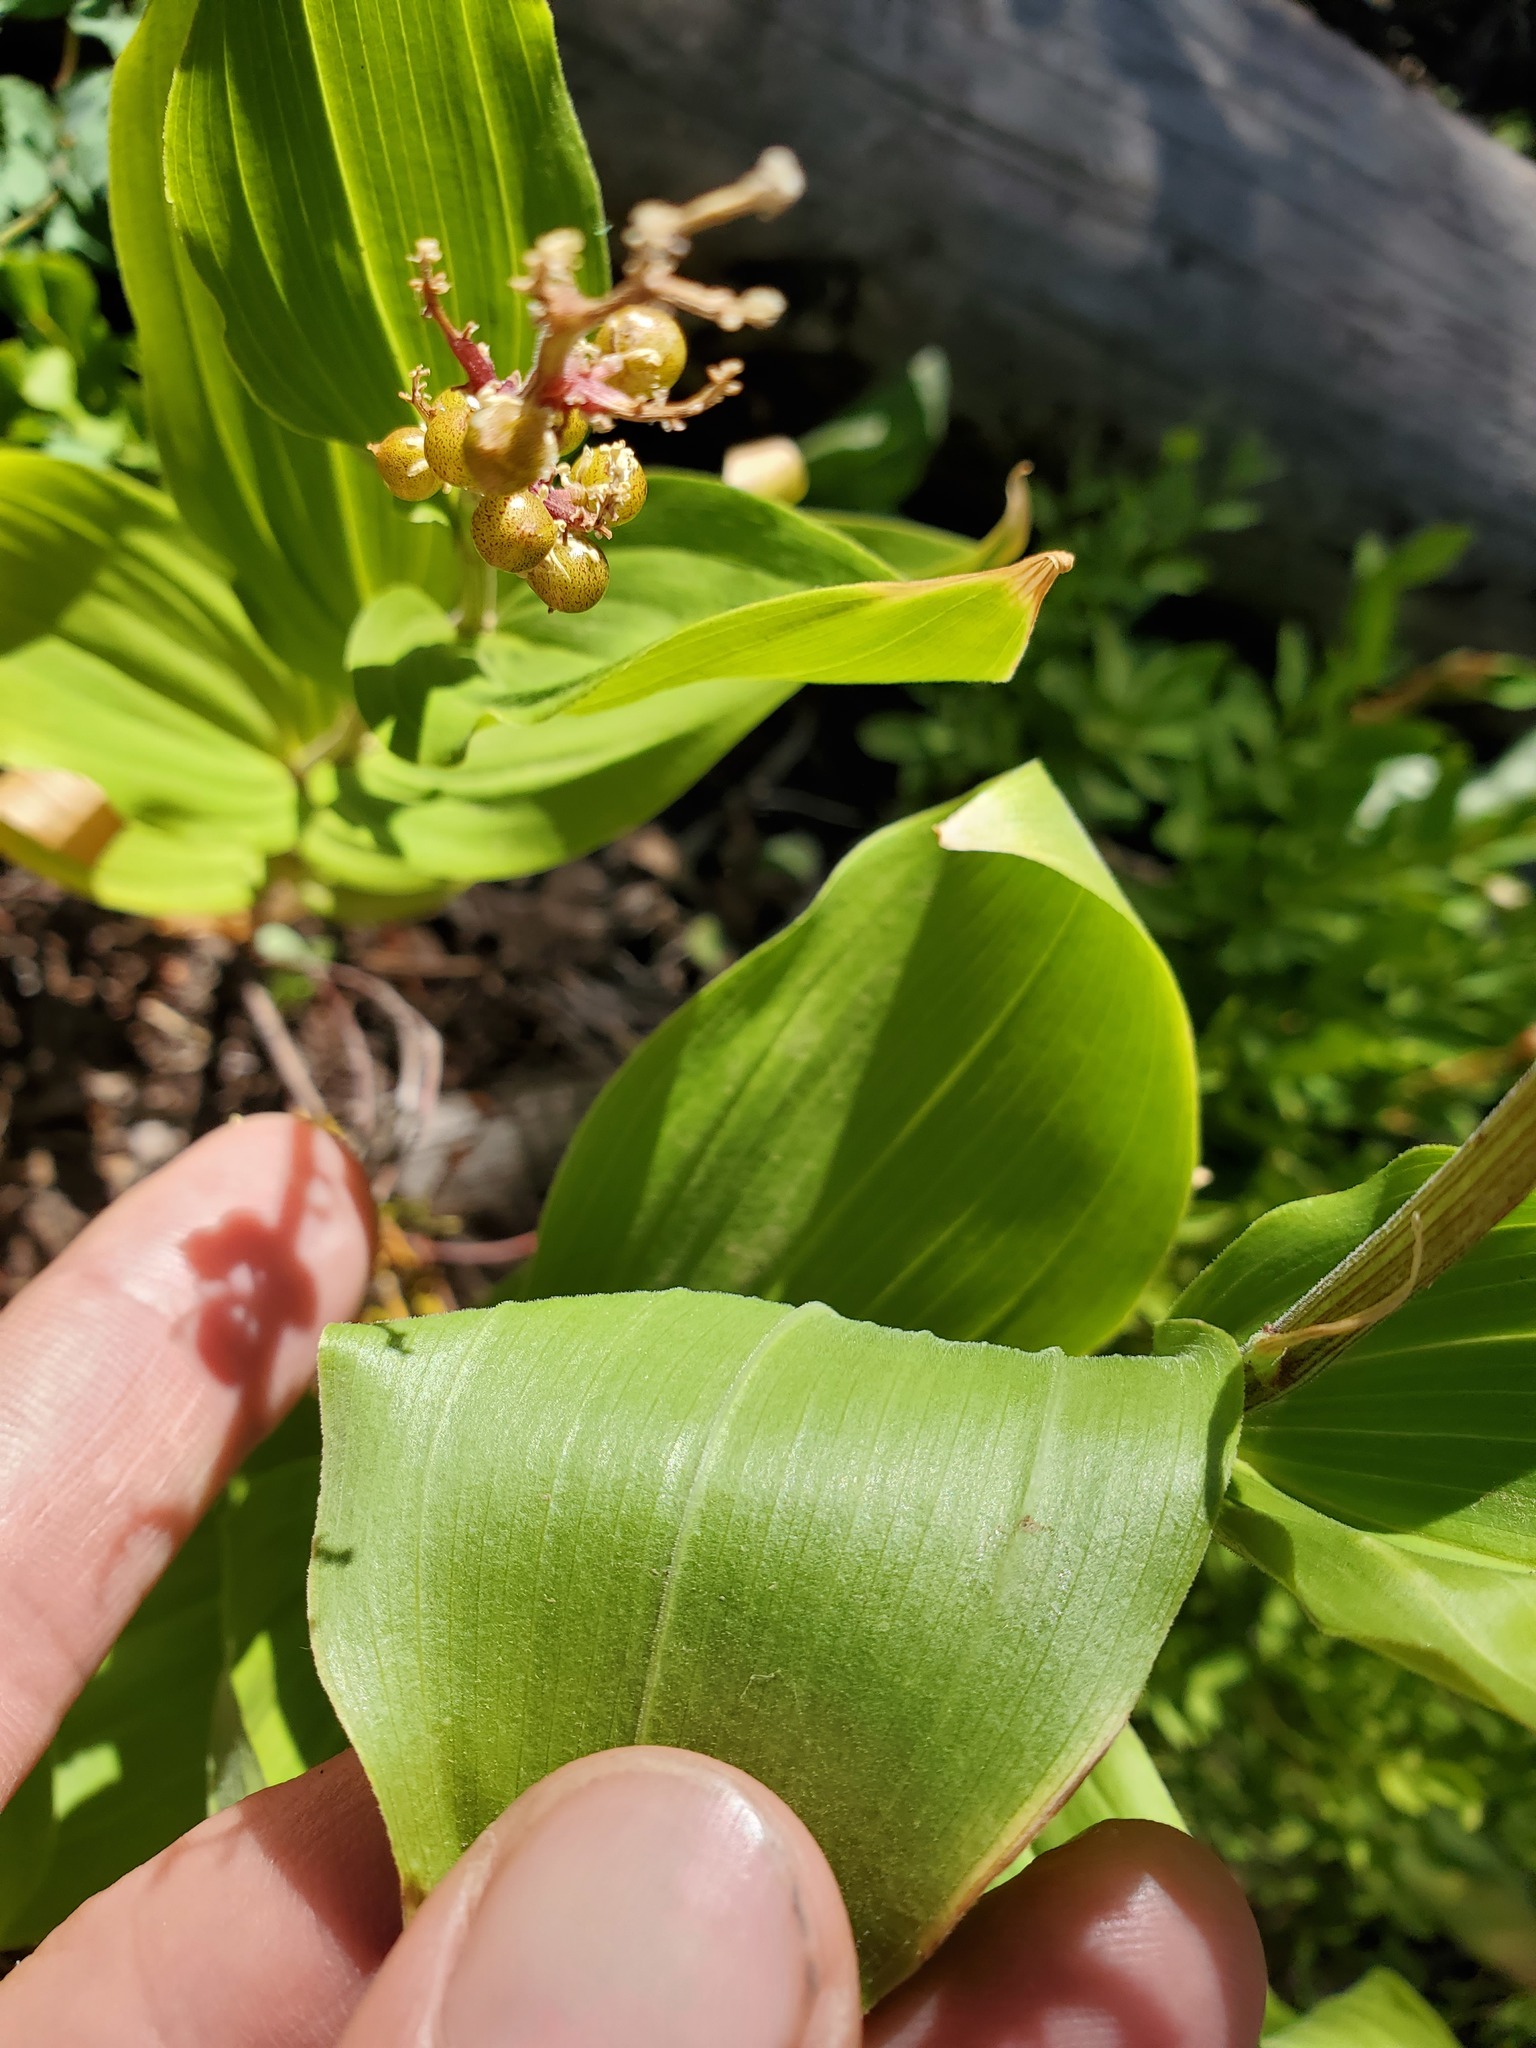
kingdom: Plantae
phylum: Tracheophyta
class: Liliopsida
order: Liliales
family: Melanthiaceae
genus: Veratrum
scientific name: Veratrum californicum
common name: California veratrum
